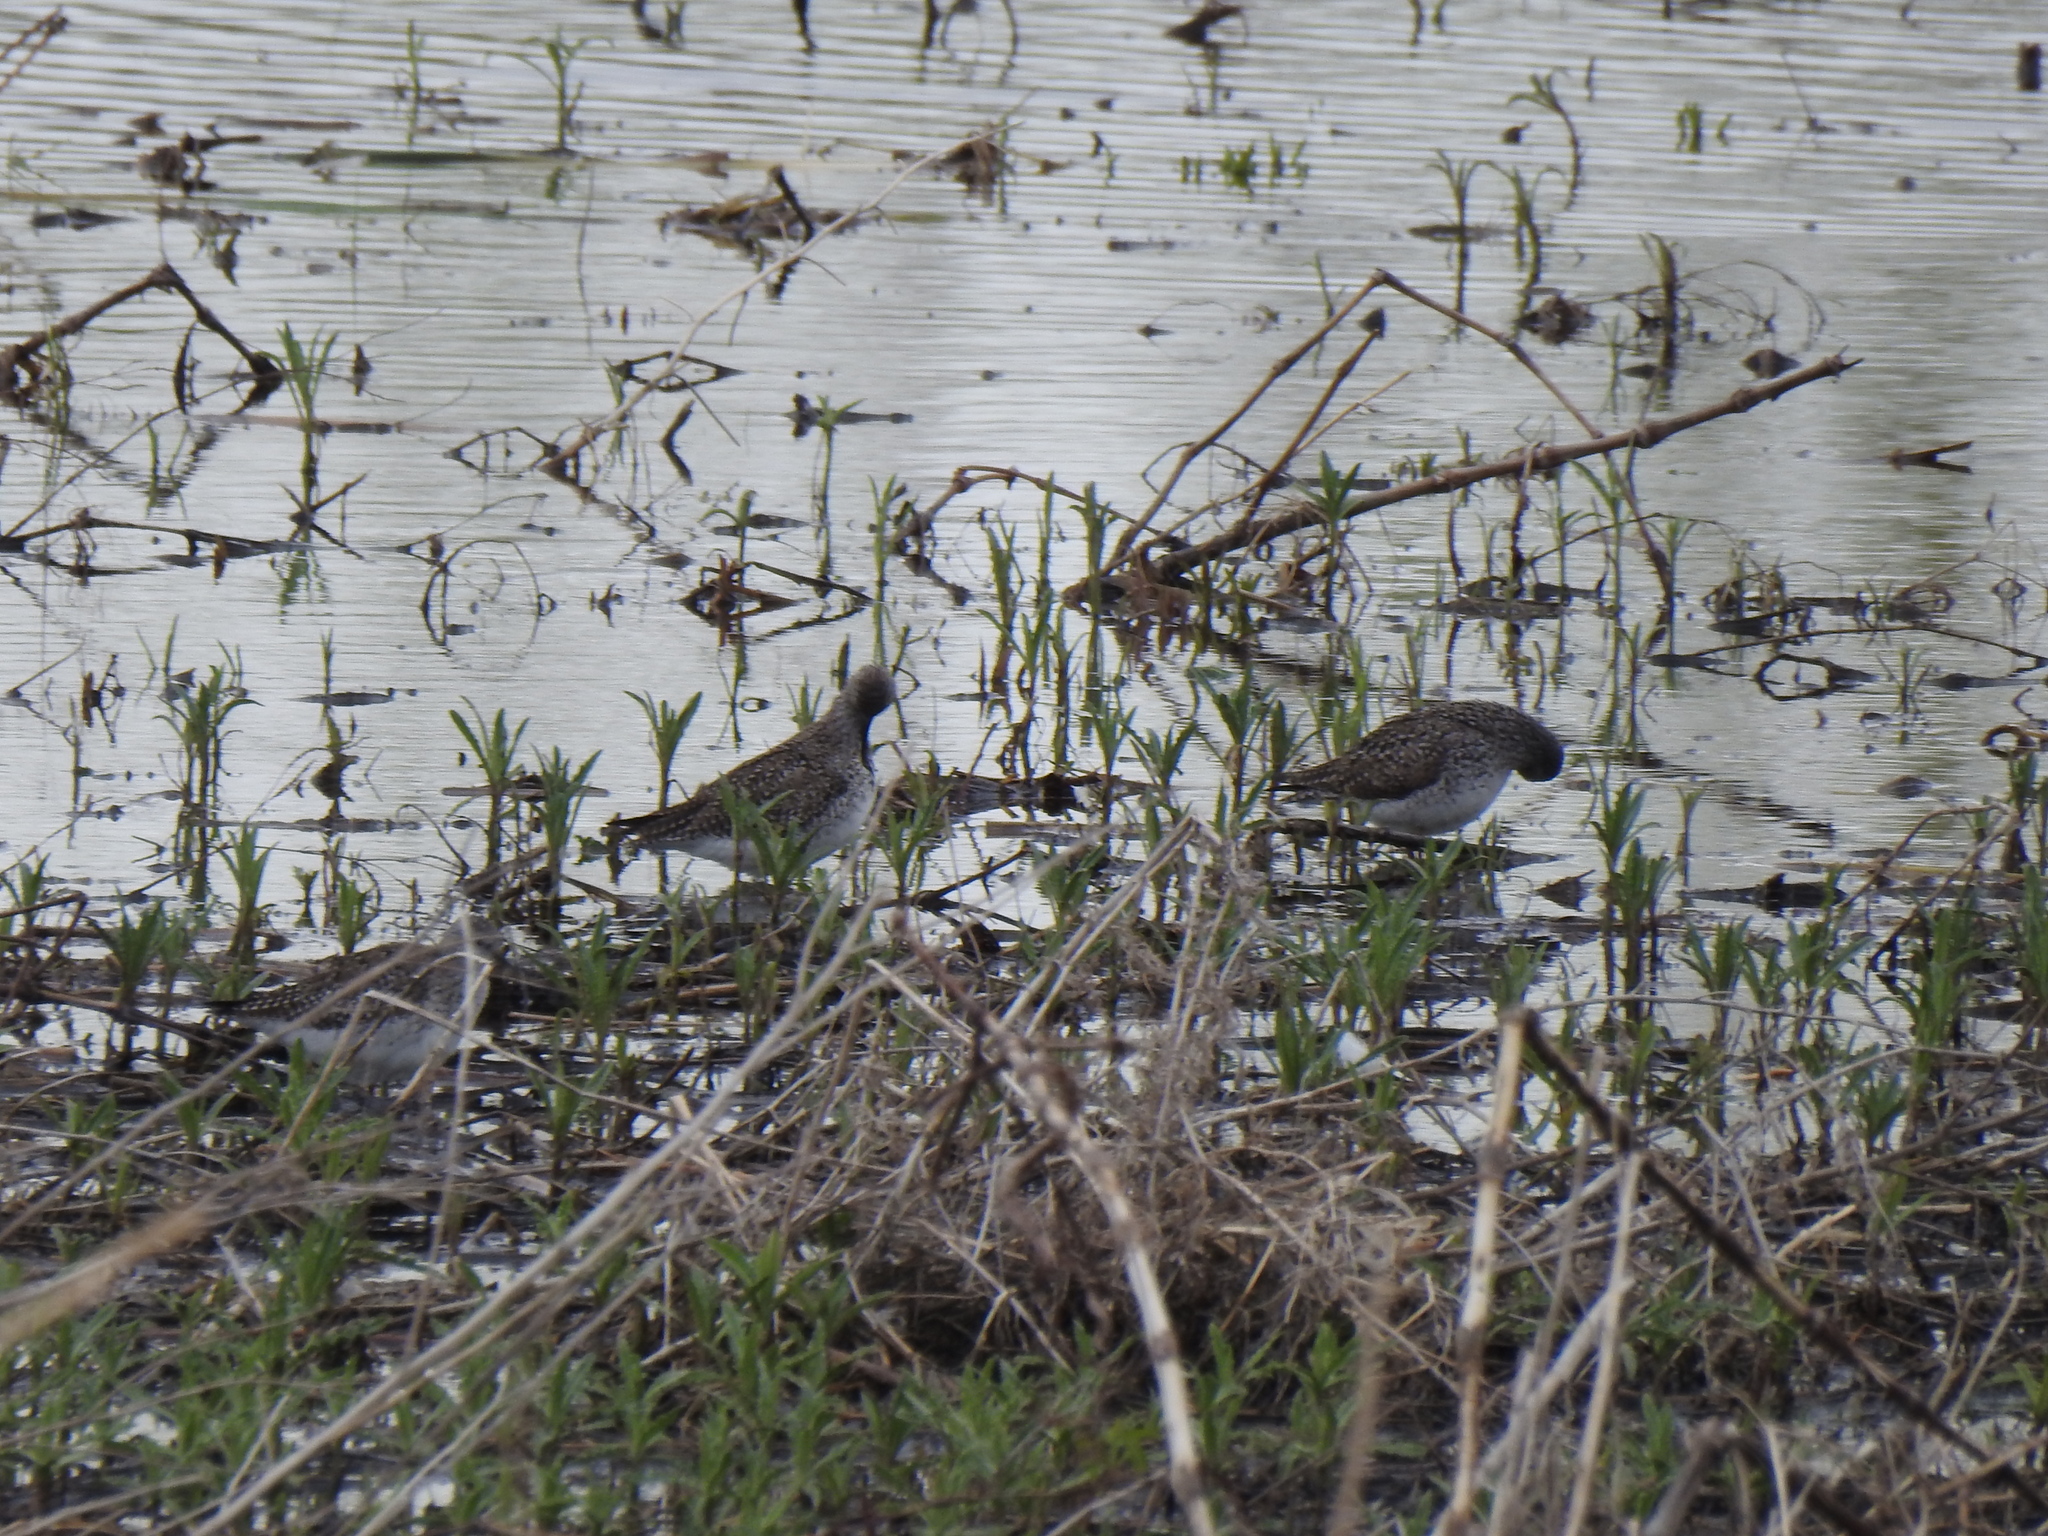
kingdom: Animalia
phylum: Chordata
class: Aves
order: Charadriiformes
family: Scolopacidae
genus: Tringa
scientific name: Tringa flavipes
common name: Lesser yellowlegs
